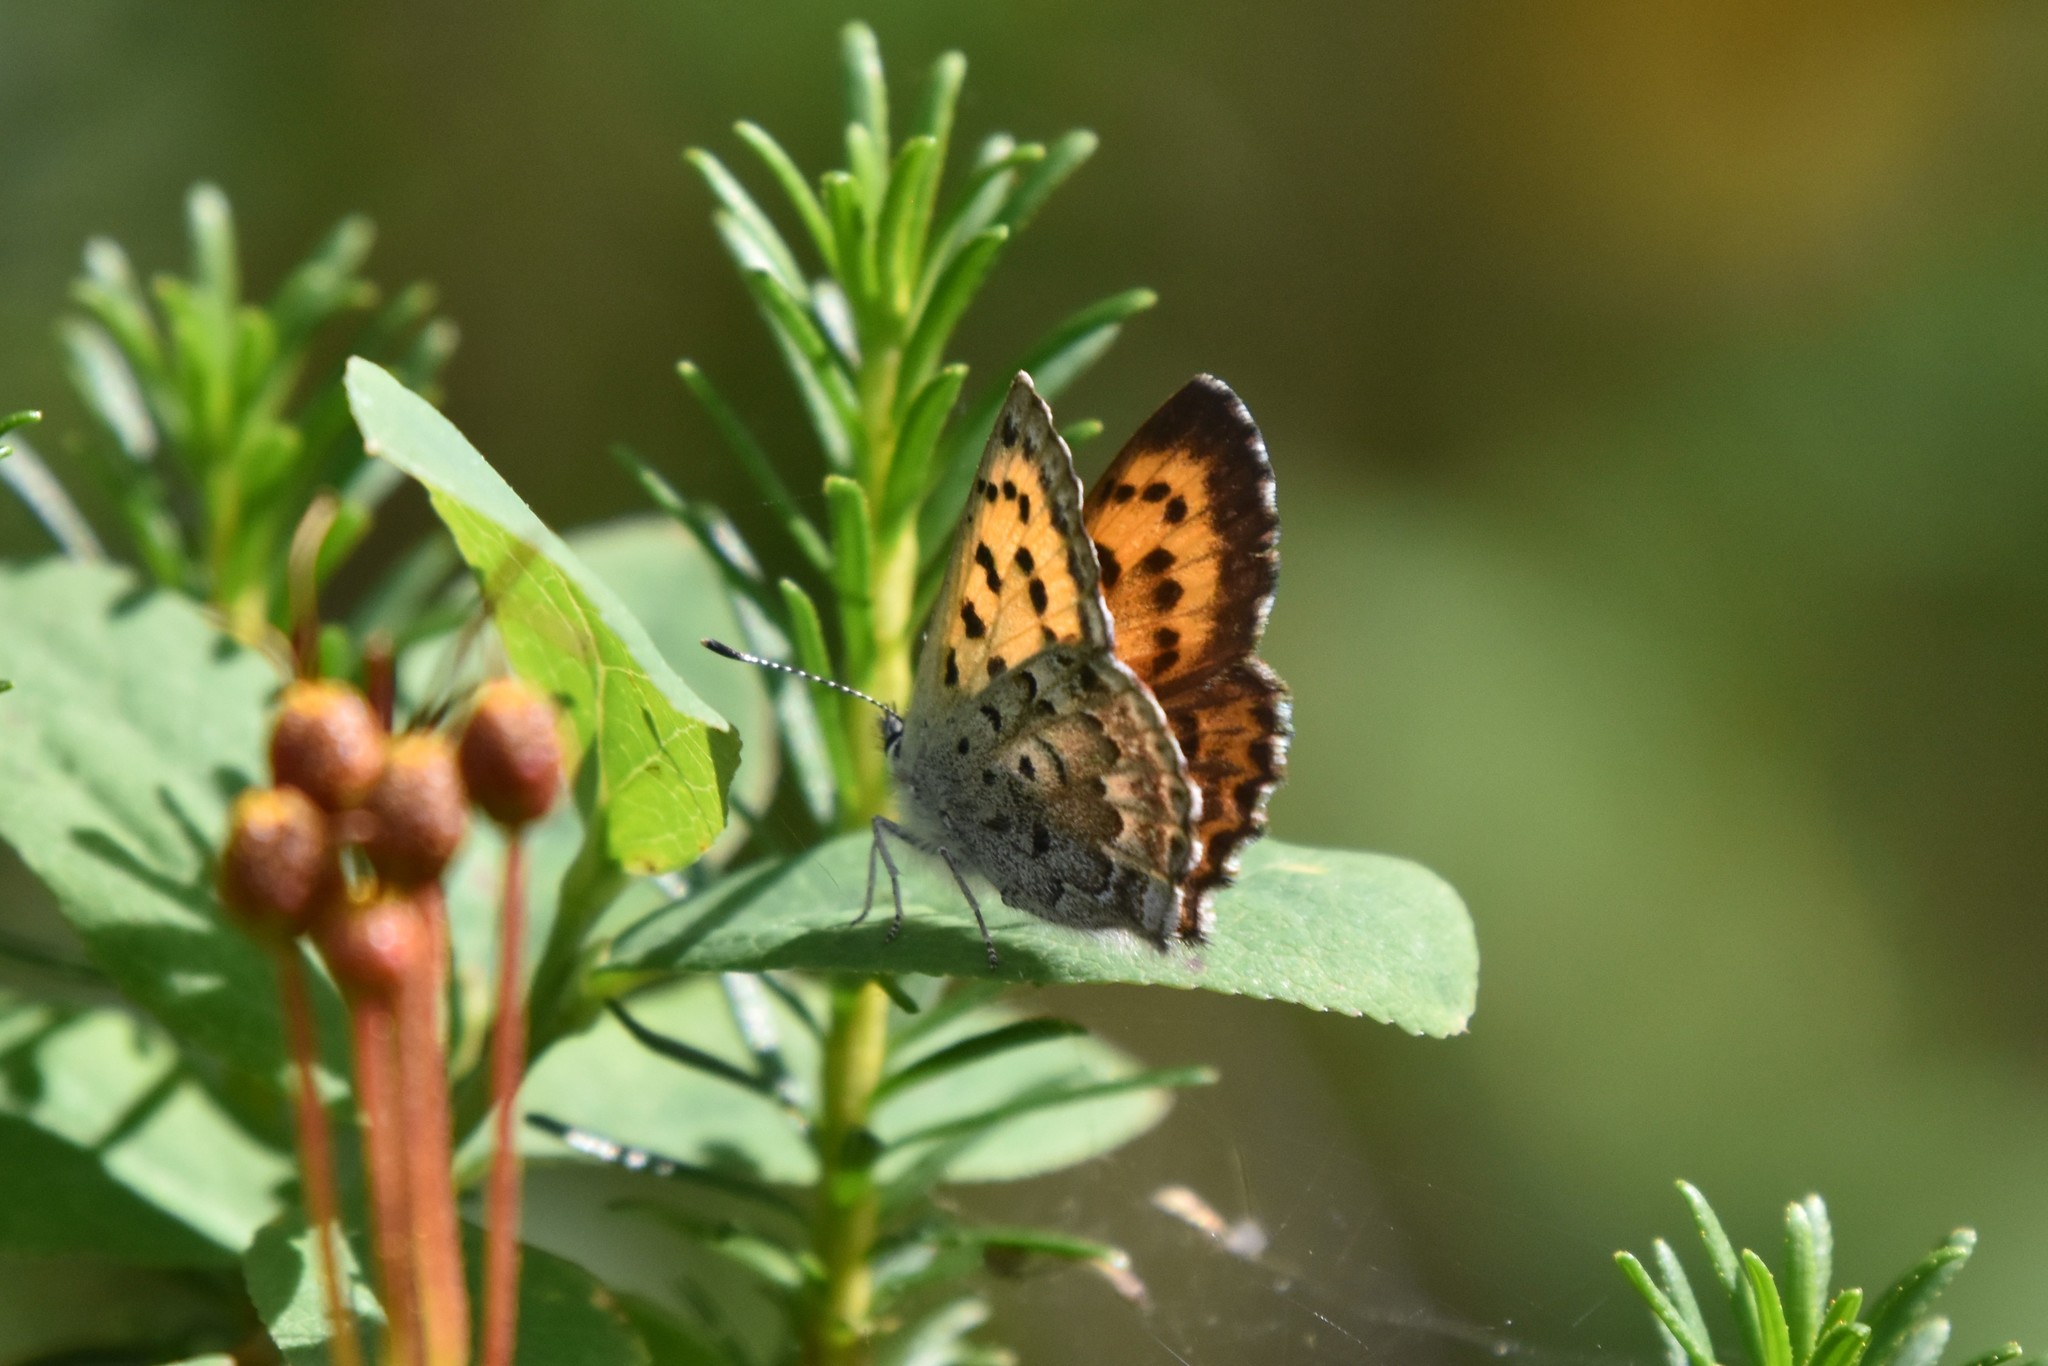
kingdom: Animalia
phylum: Arthropoda
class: Insecta
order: Lepidoptera
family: Lycaenidae
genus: Tharsalea
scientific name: Tharsalea mariposa
